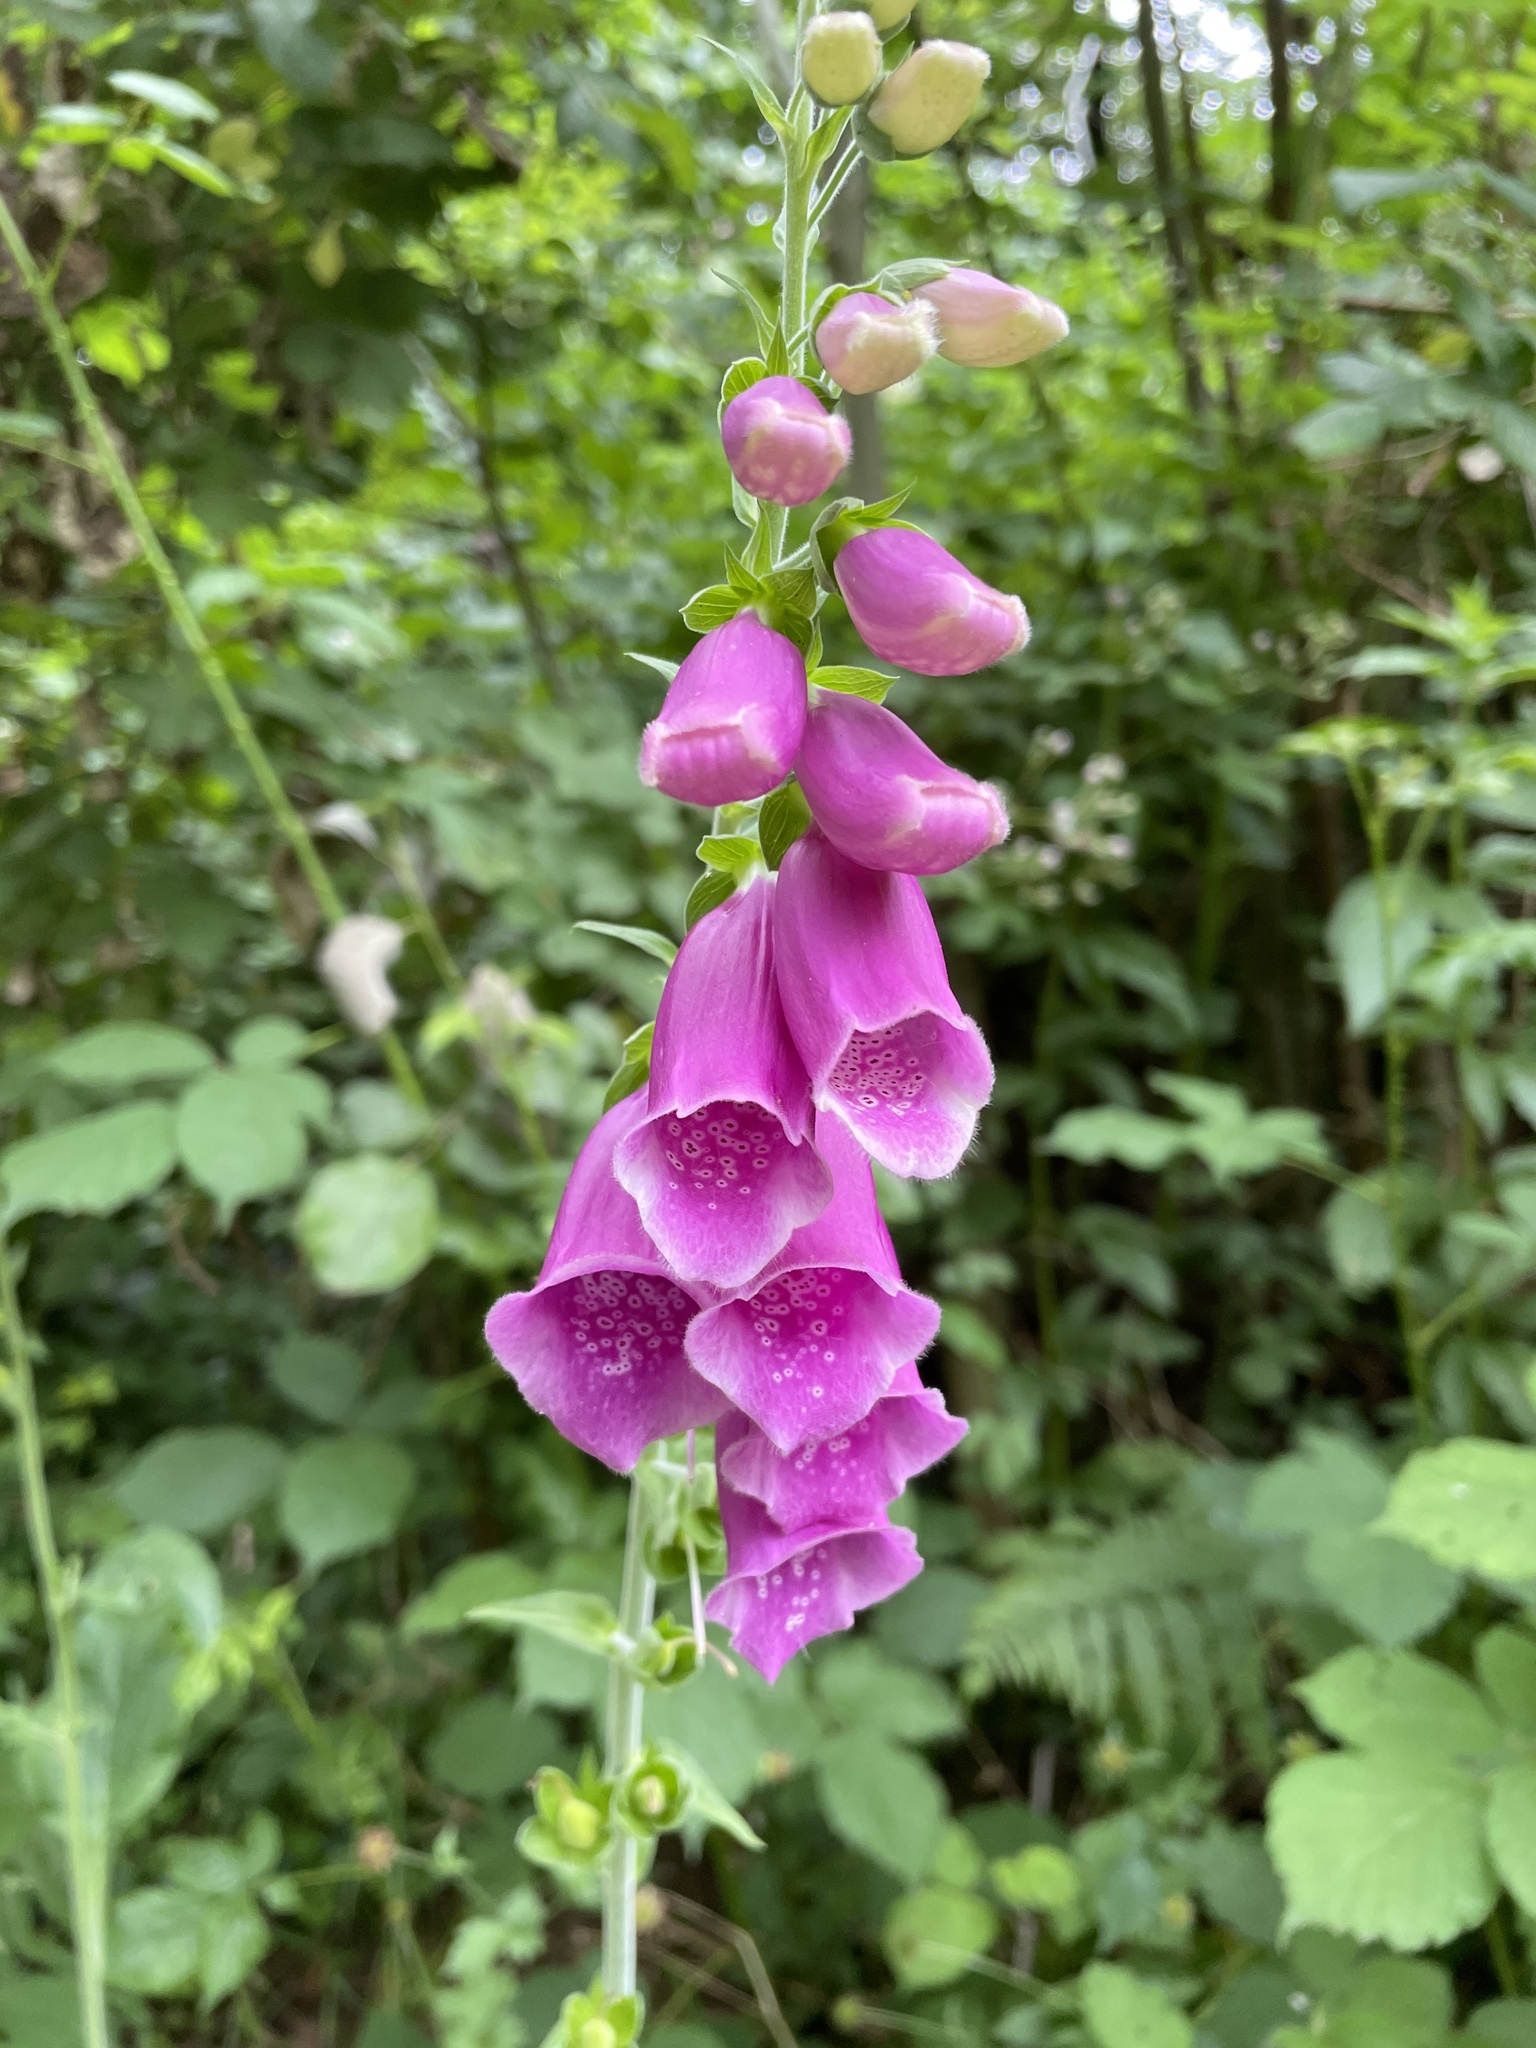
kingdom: Plantae
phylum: Tracheophyta
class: Magnoliopsida
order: Lamiales
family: Plantaginaceae
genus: Digitalis
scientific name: Digitalis purpurea
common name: Foxglove
